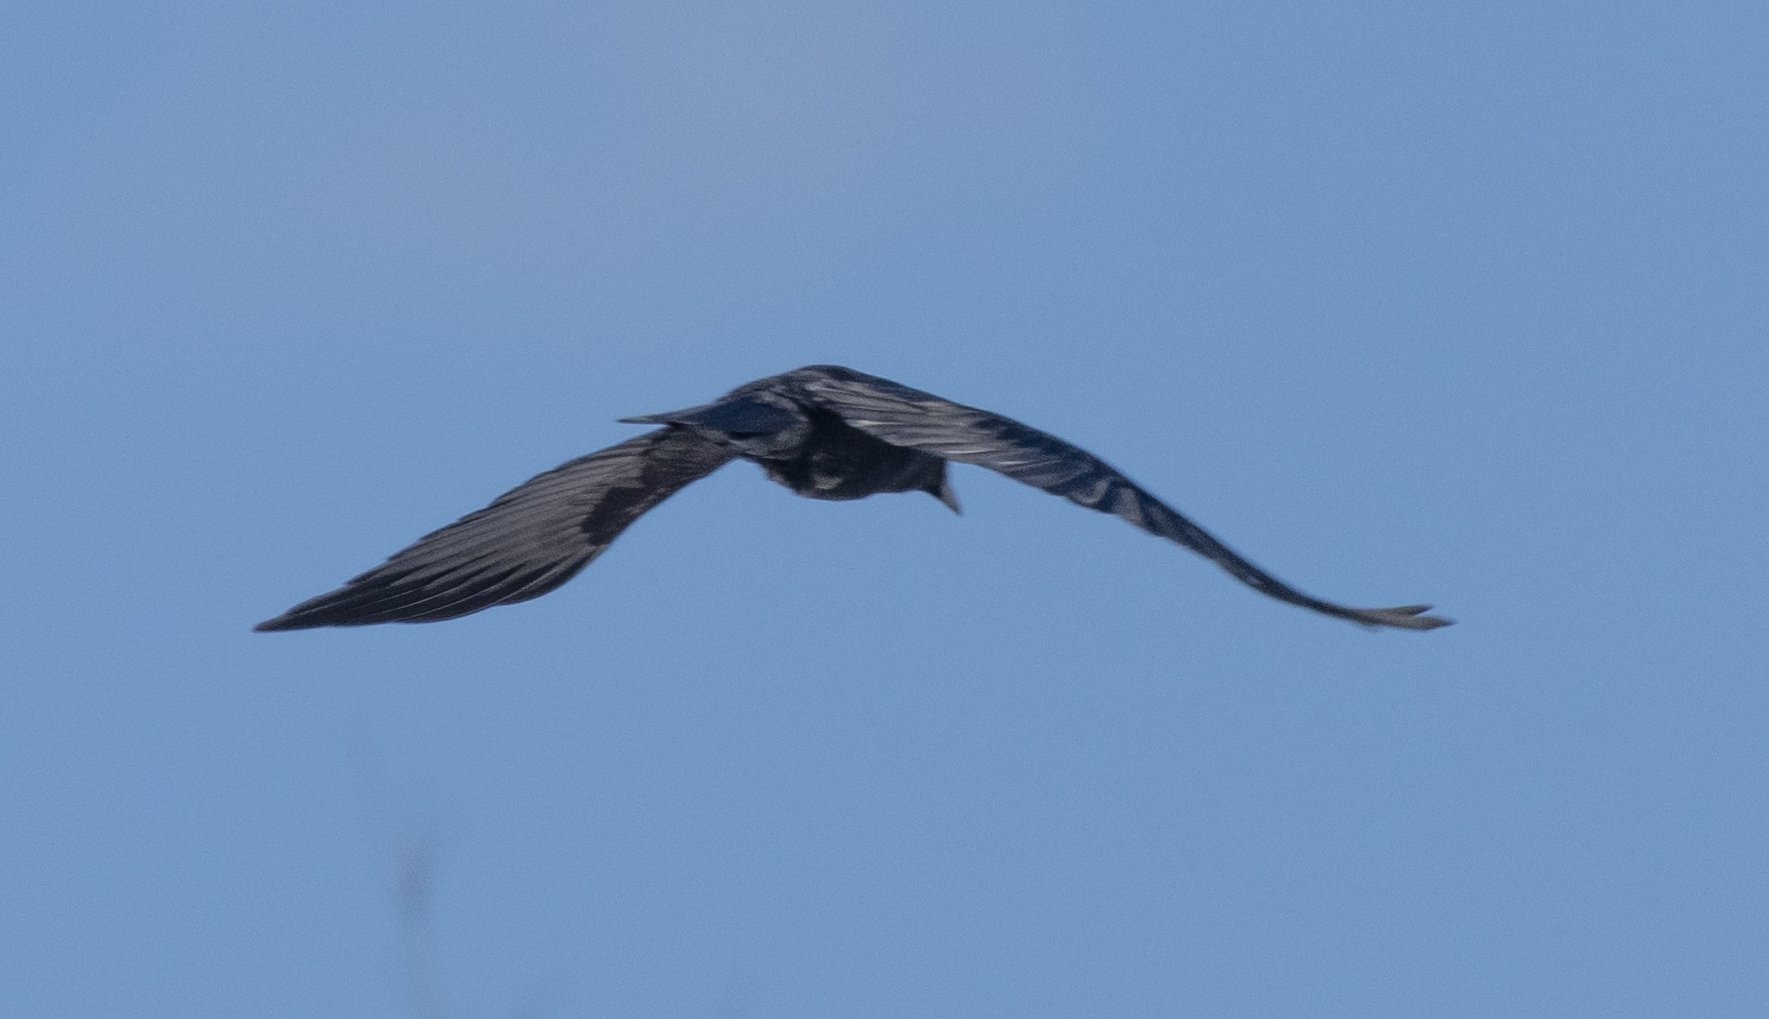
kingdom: Animalia
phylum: Chordata
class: Aves
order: Passeriformes
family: Corvidae
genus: Corvus
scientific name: Corvus brachyrhynchos
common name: American crow
